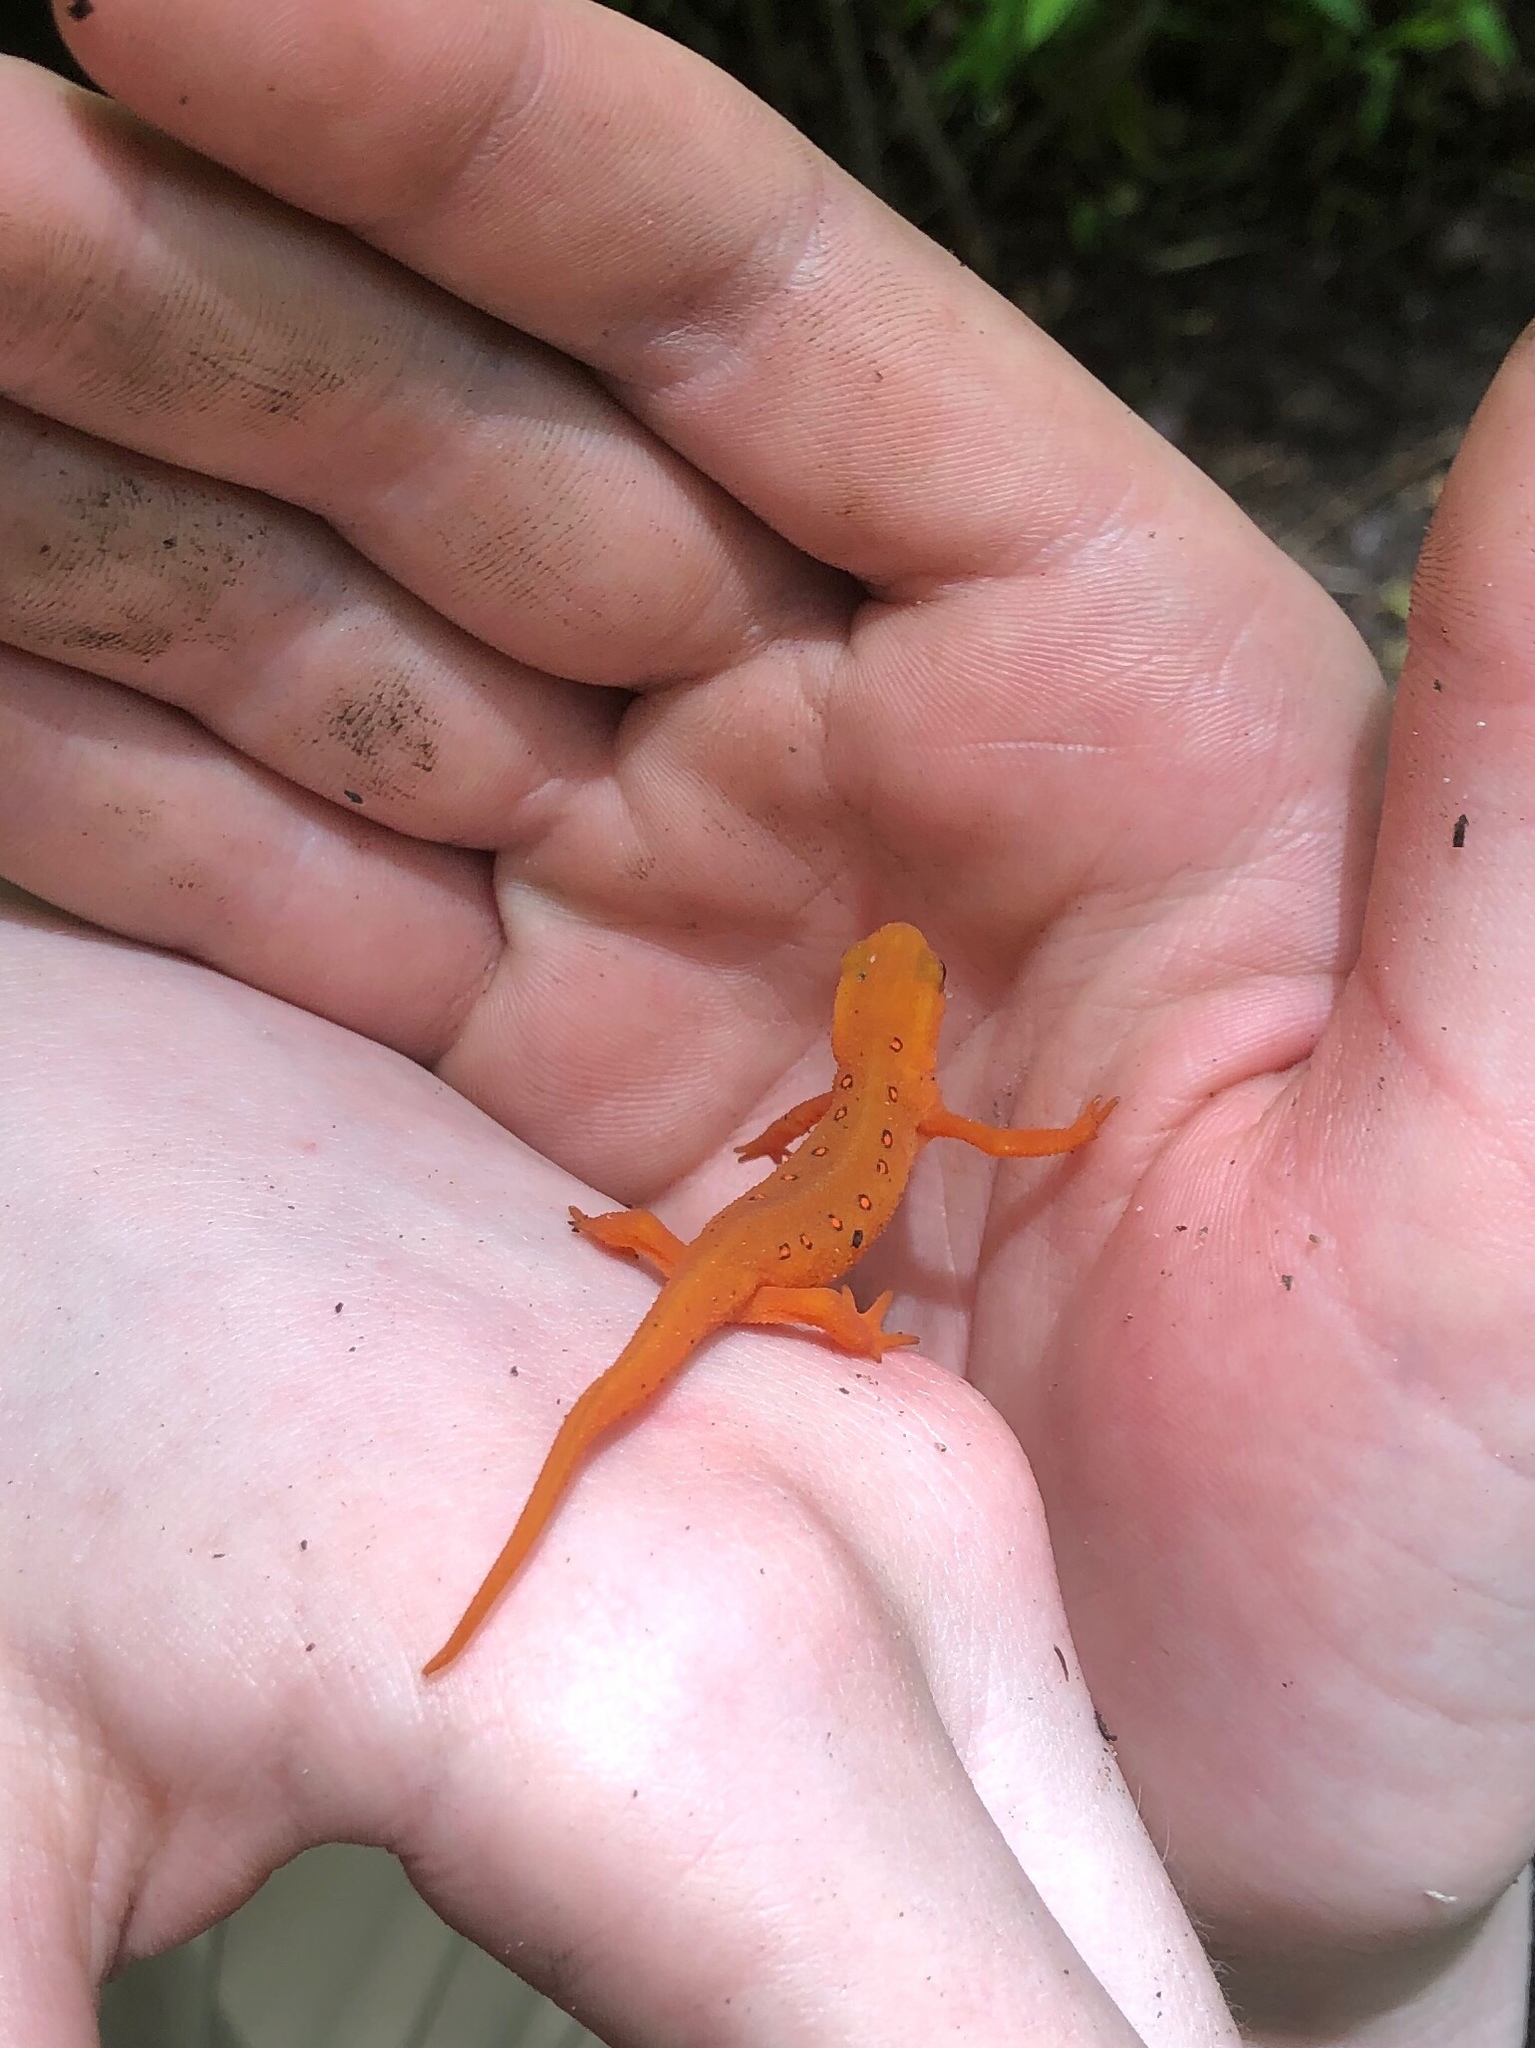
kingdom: Animalia
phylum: Chordata
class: Amphibia
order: Caudata
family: Salamandridae
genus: Notophthalmus
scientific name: Notophthalmus viridescens
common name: Eastern newt
